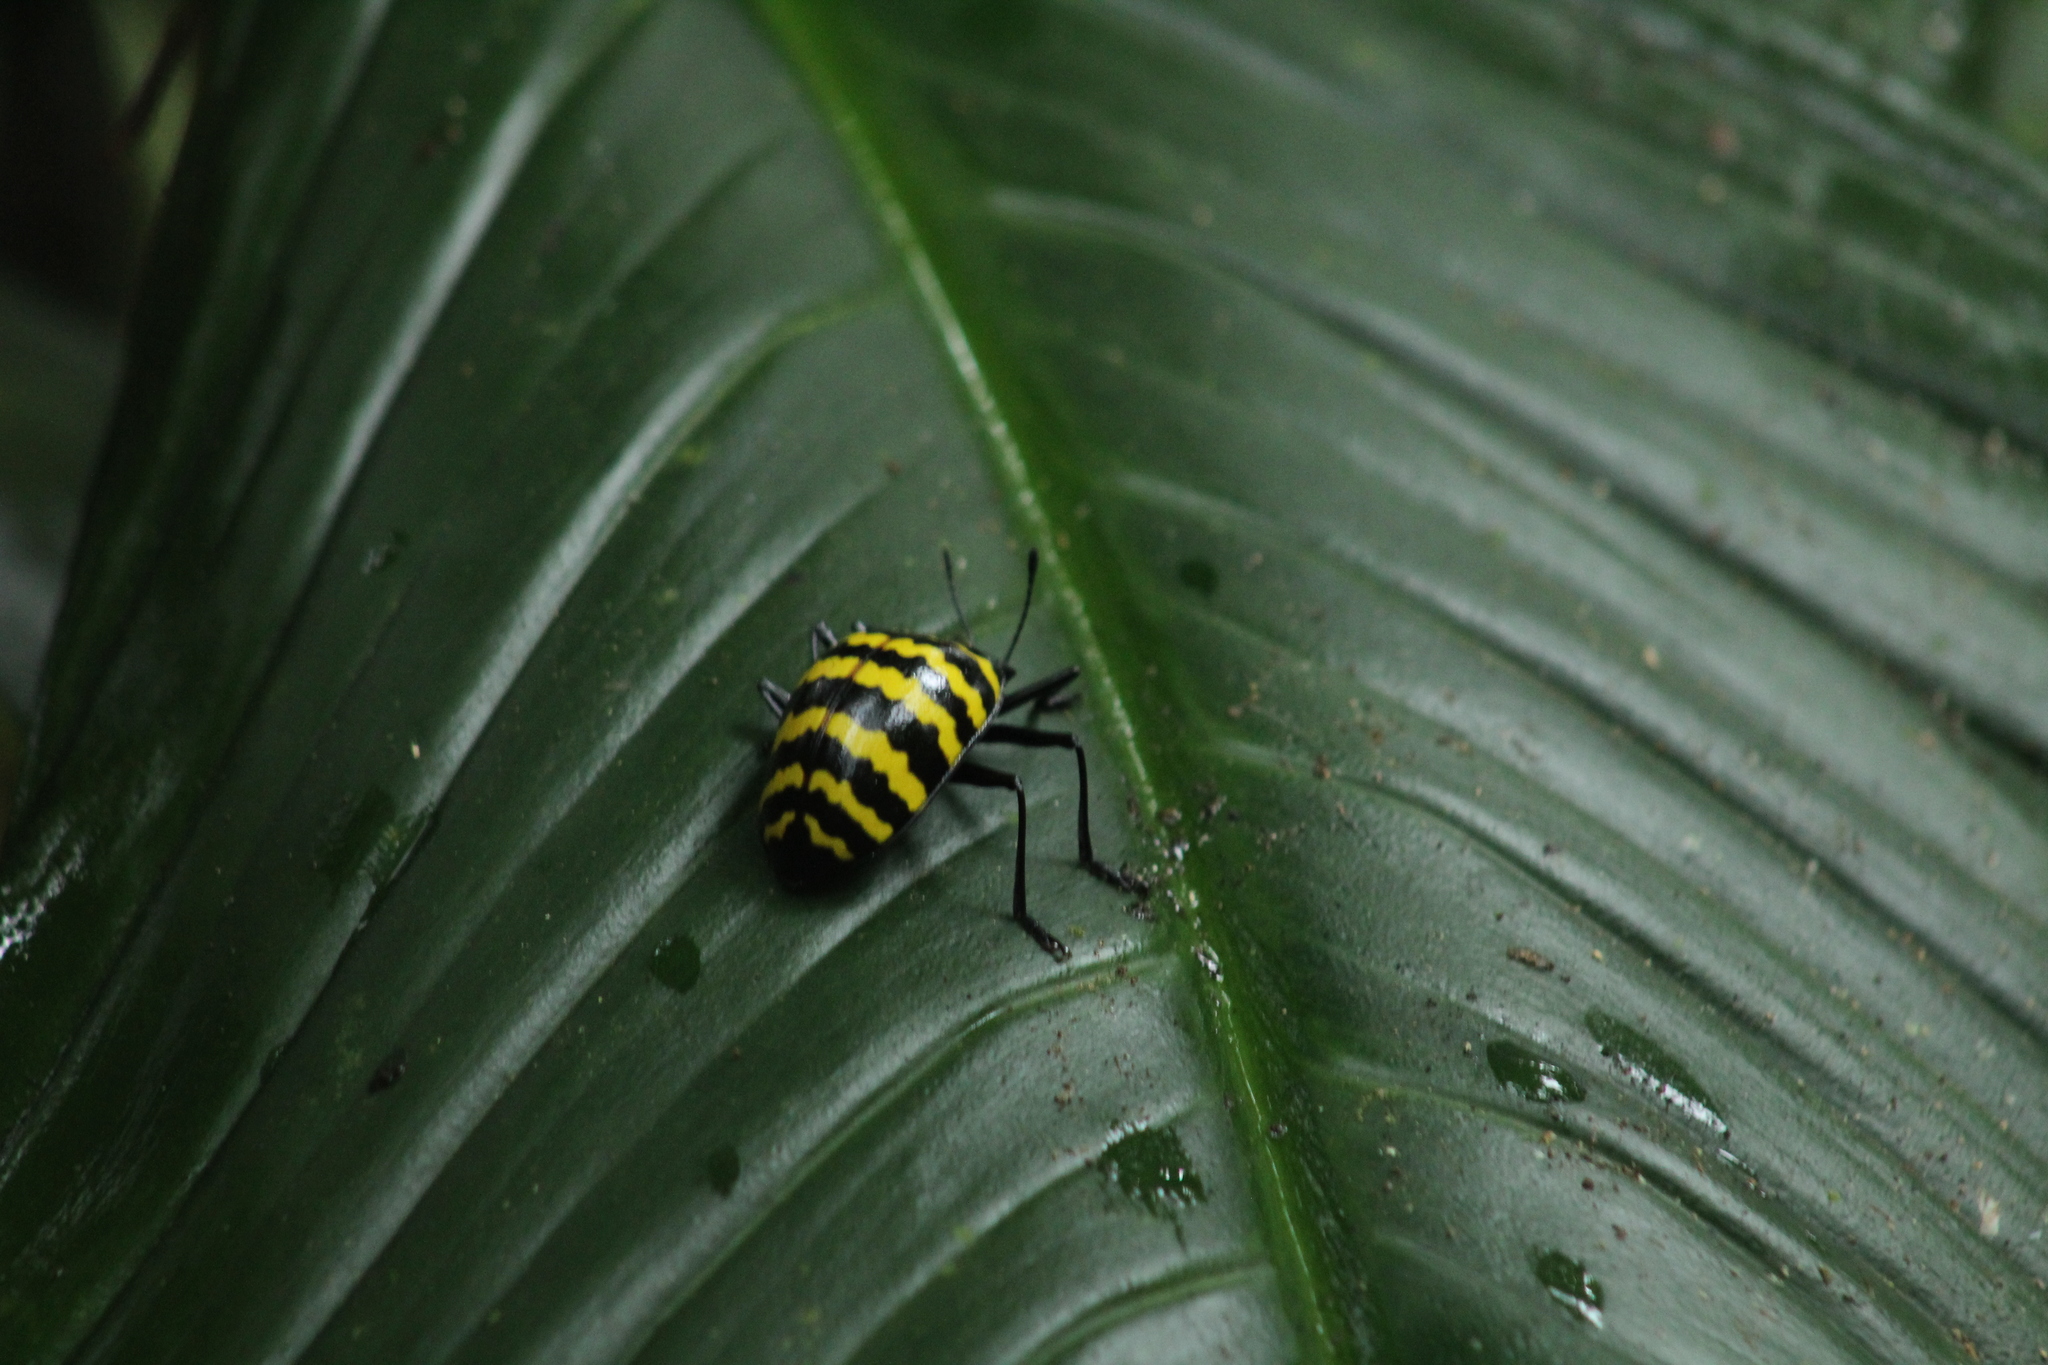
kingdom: Animalia
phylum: Arthropoda
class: Insecta
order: Coleoptera
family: Erotylidae
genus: Erotylus
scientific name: Erotylus
